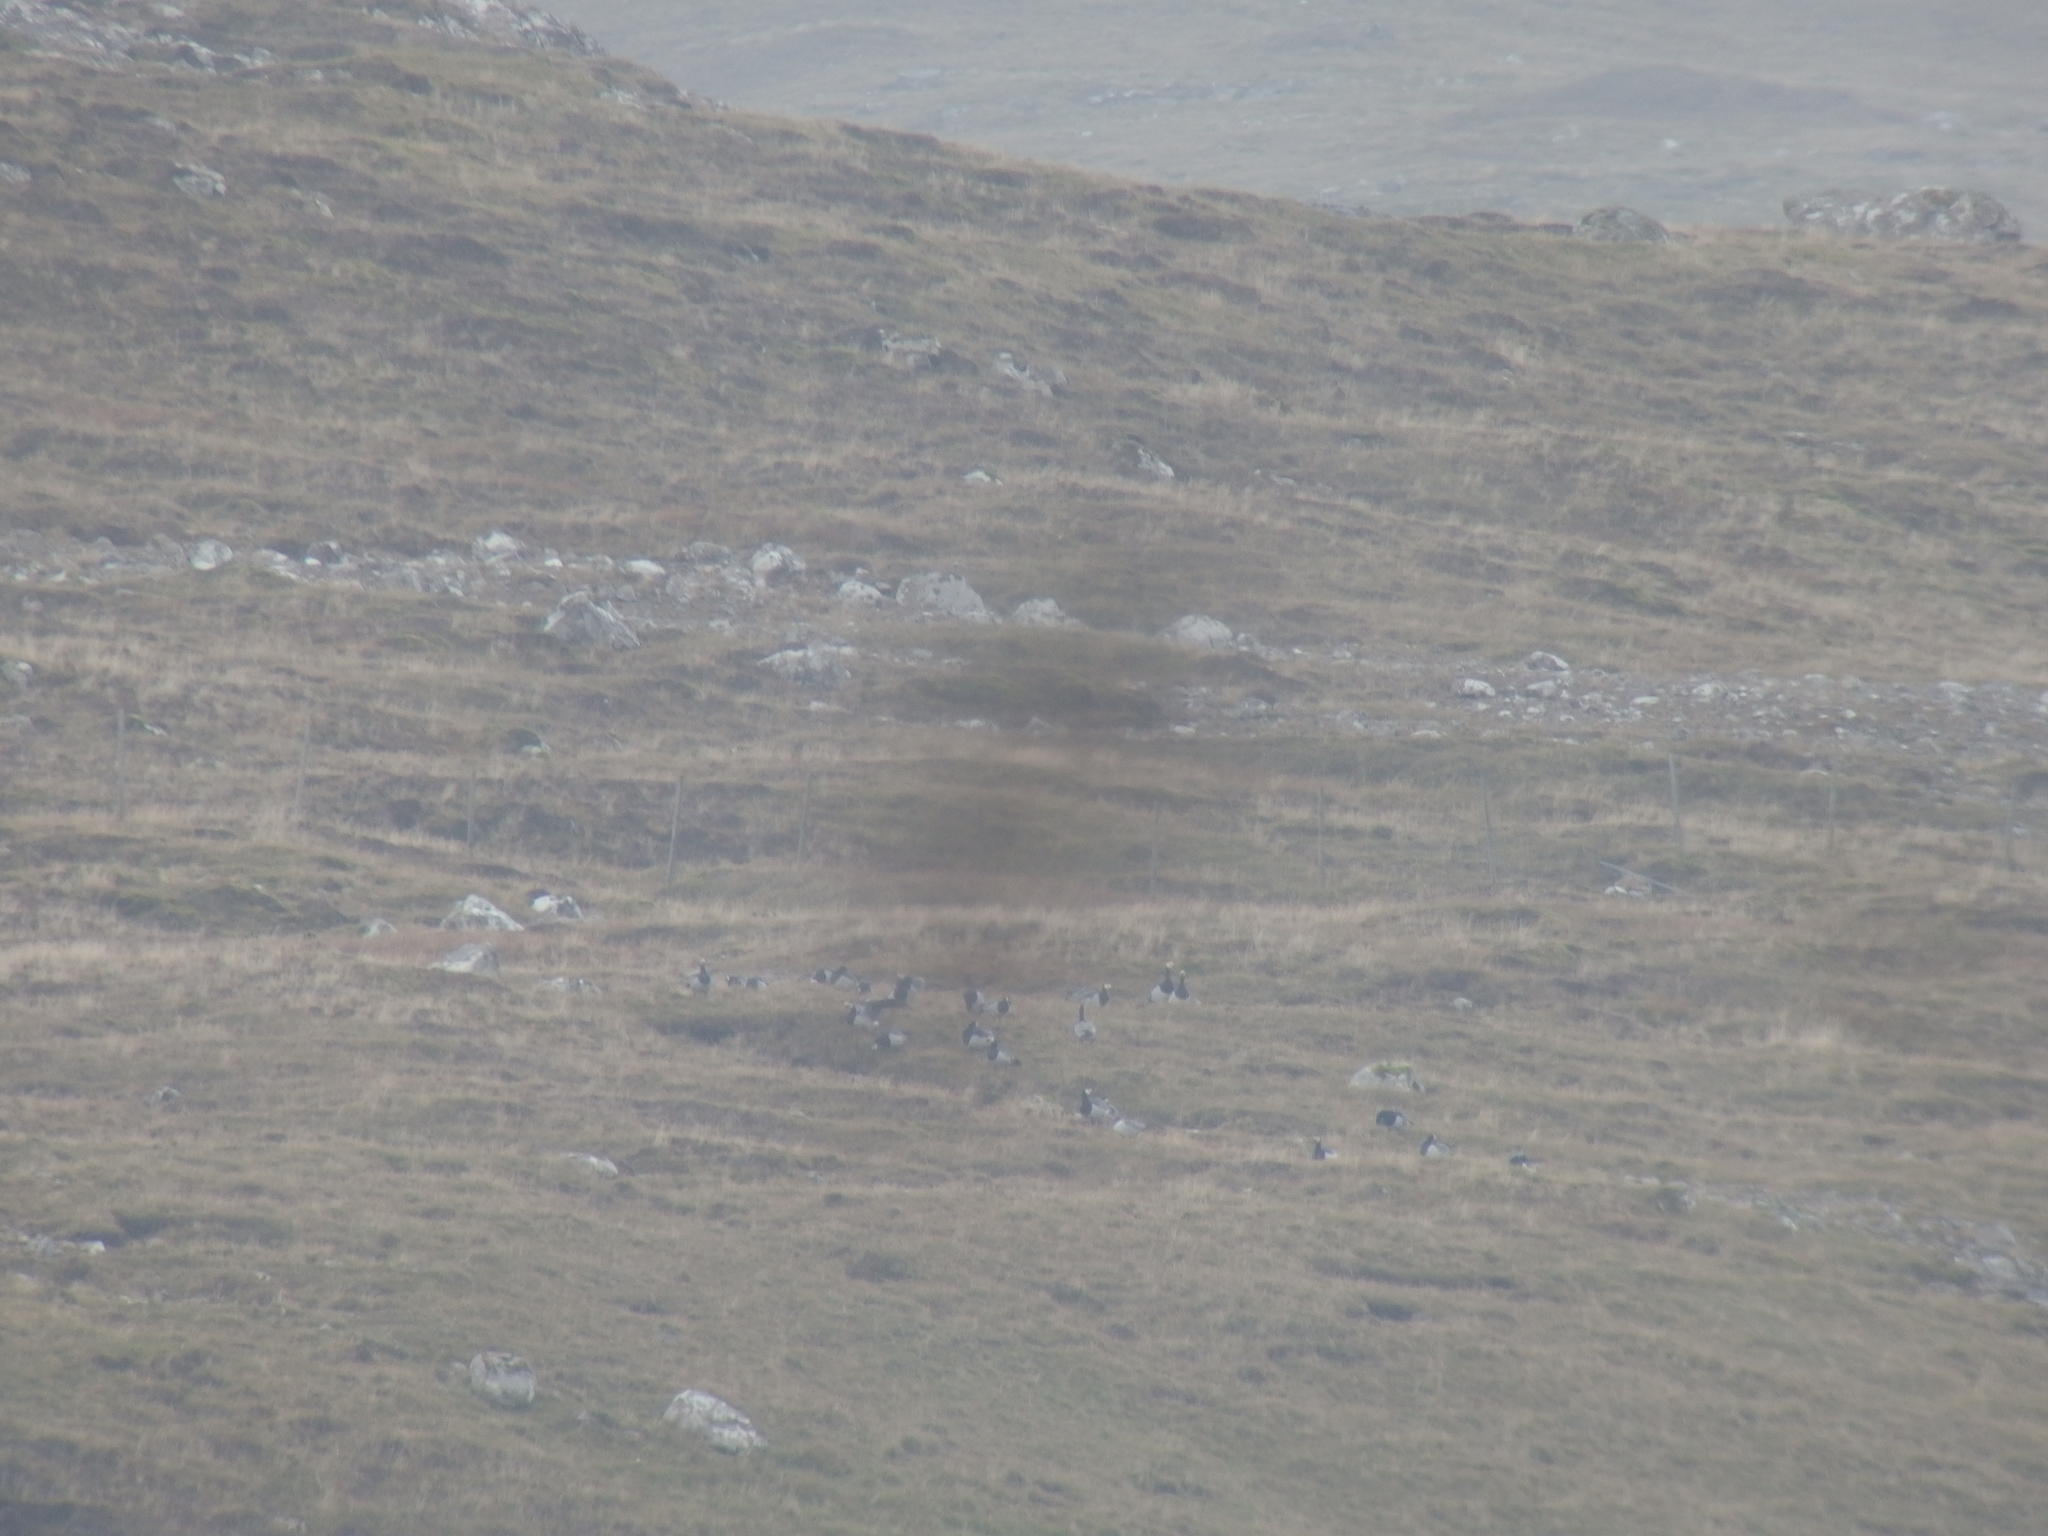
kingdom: Animalia
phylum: Chordata
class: Aves
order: Anseriformes
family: Anatidae
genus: Branta
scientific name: Branta leucopsis
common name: Barnacle goose
